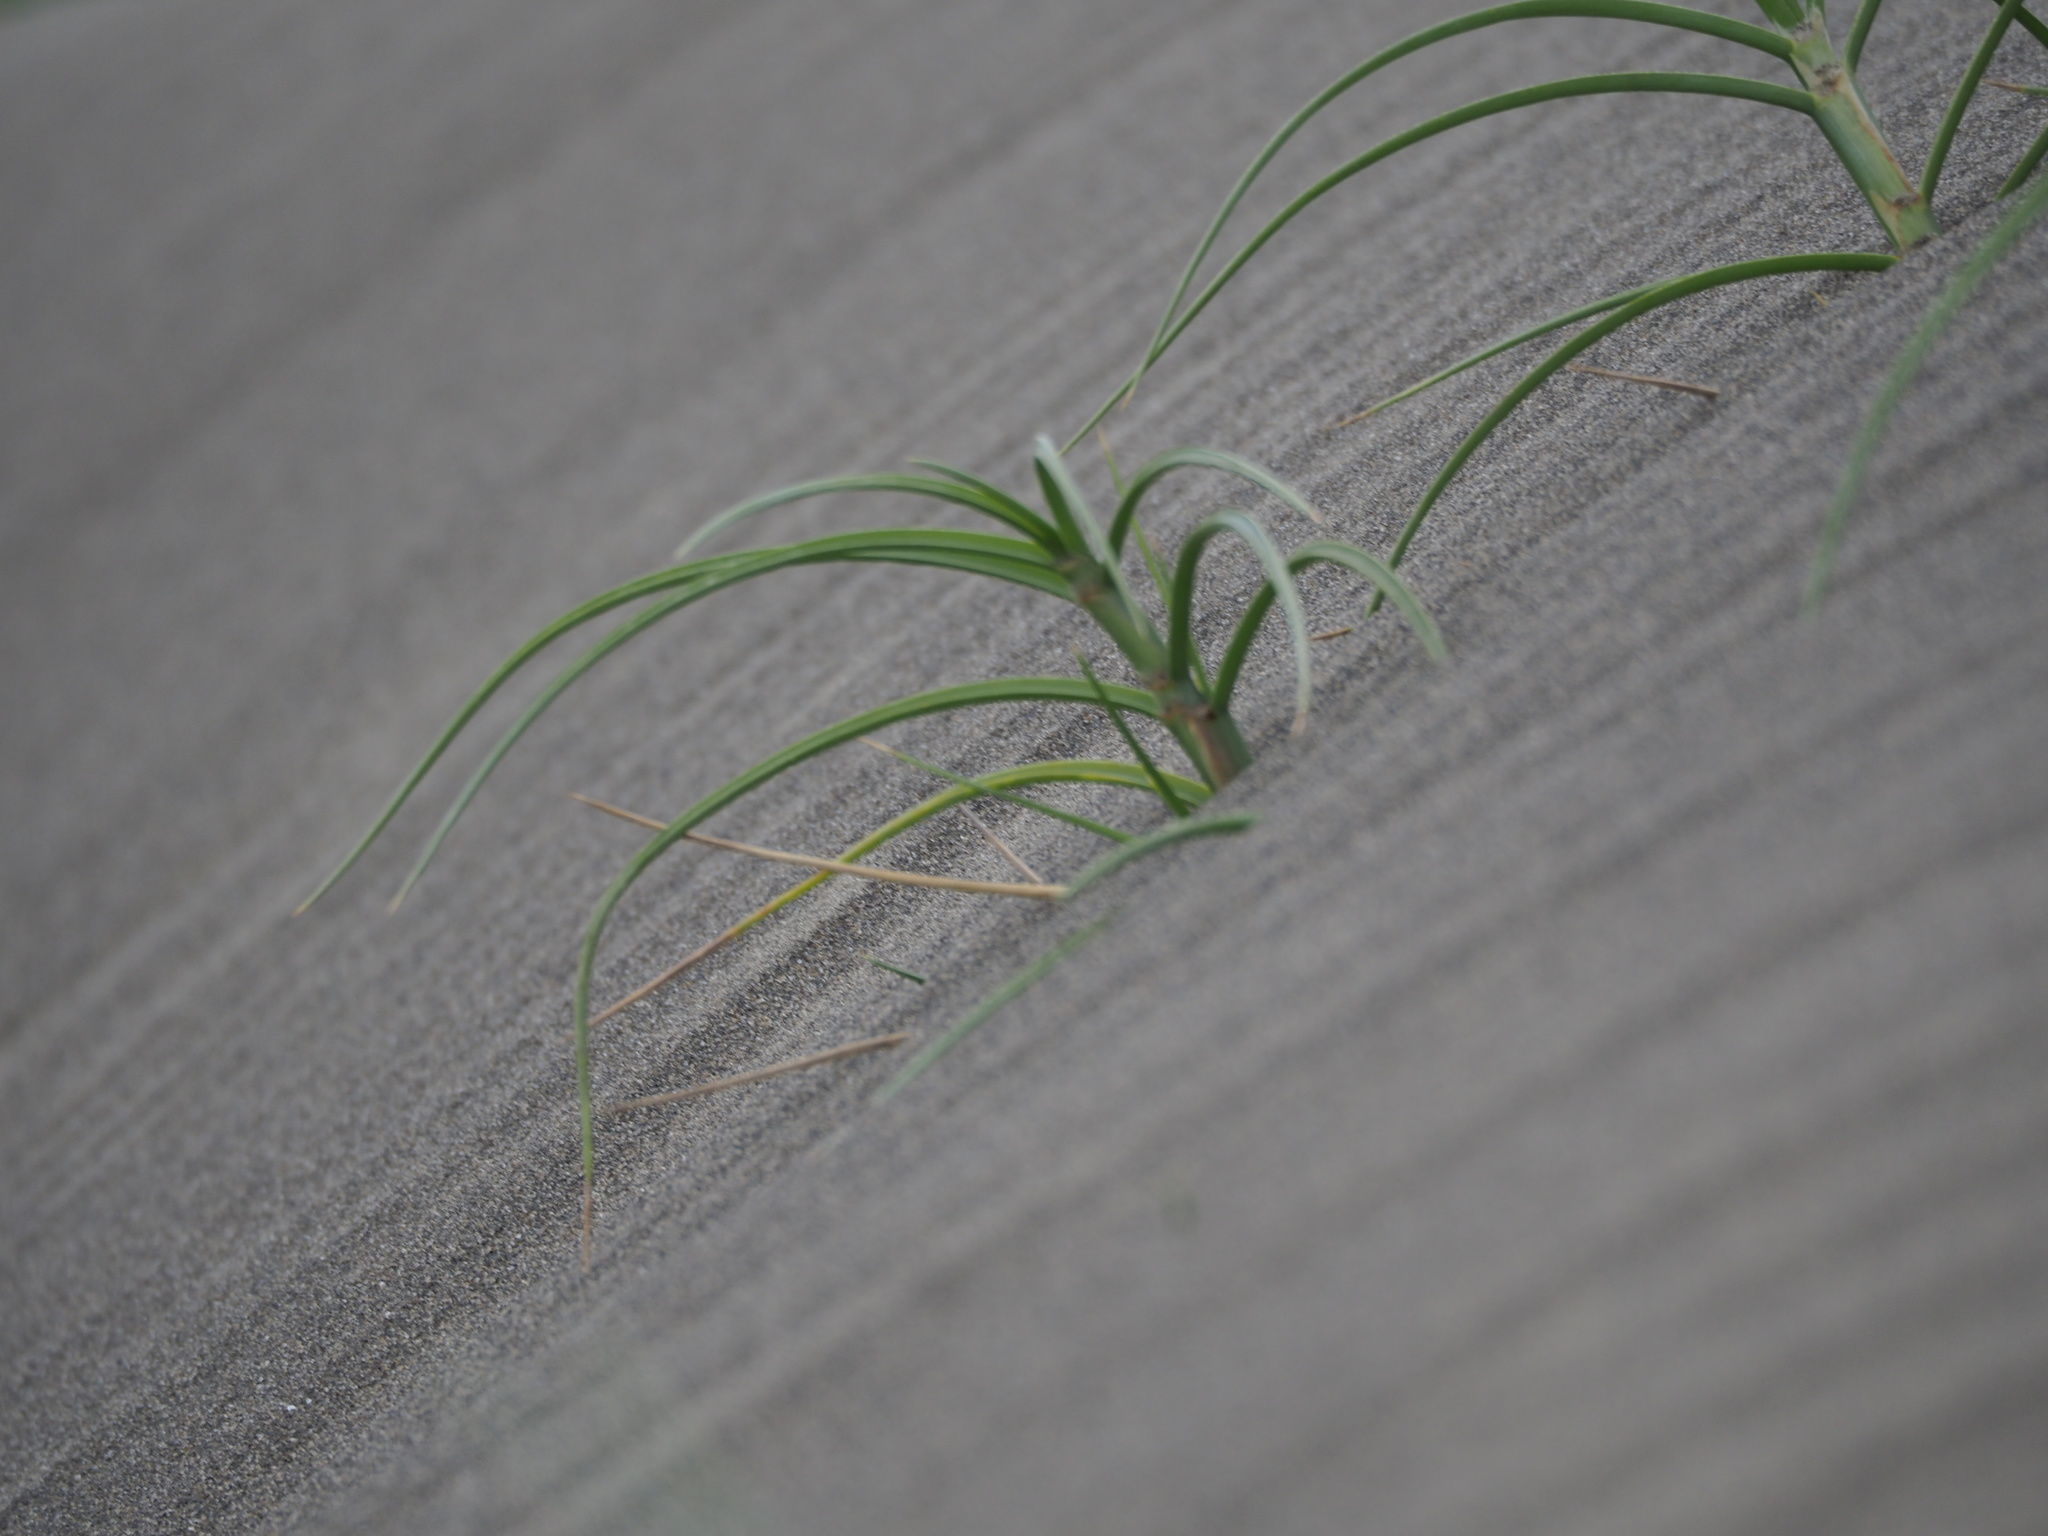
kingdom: Plantae
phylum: Tracheophyta
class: Liliopsida
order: Poales
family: Poaceae
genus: Spinifex
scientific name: Spinifex littoreus
